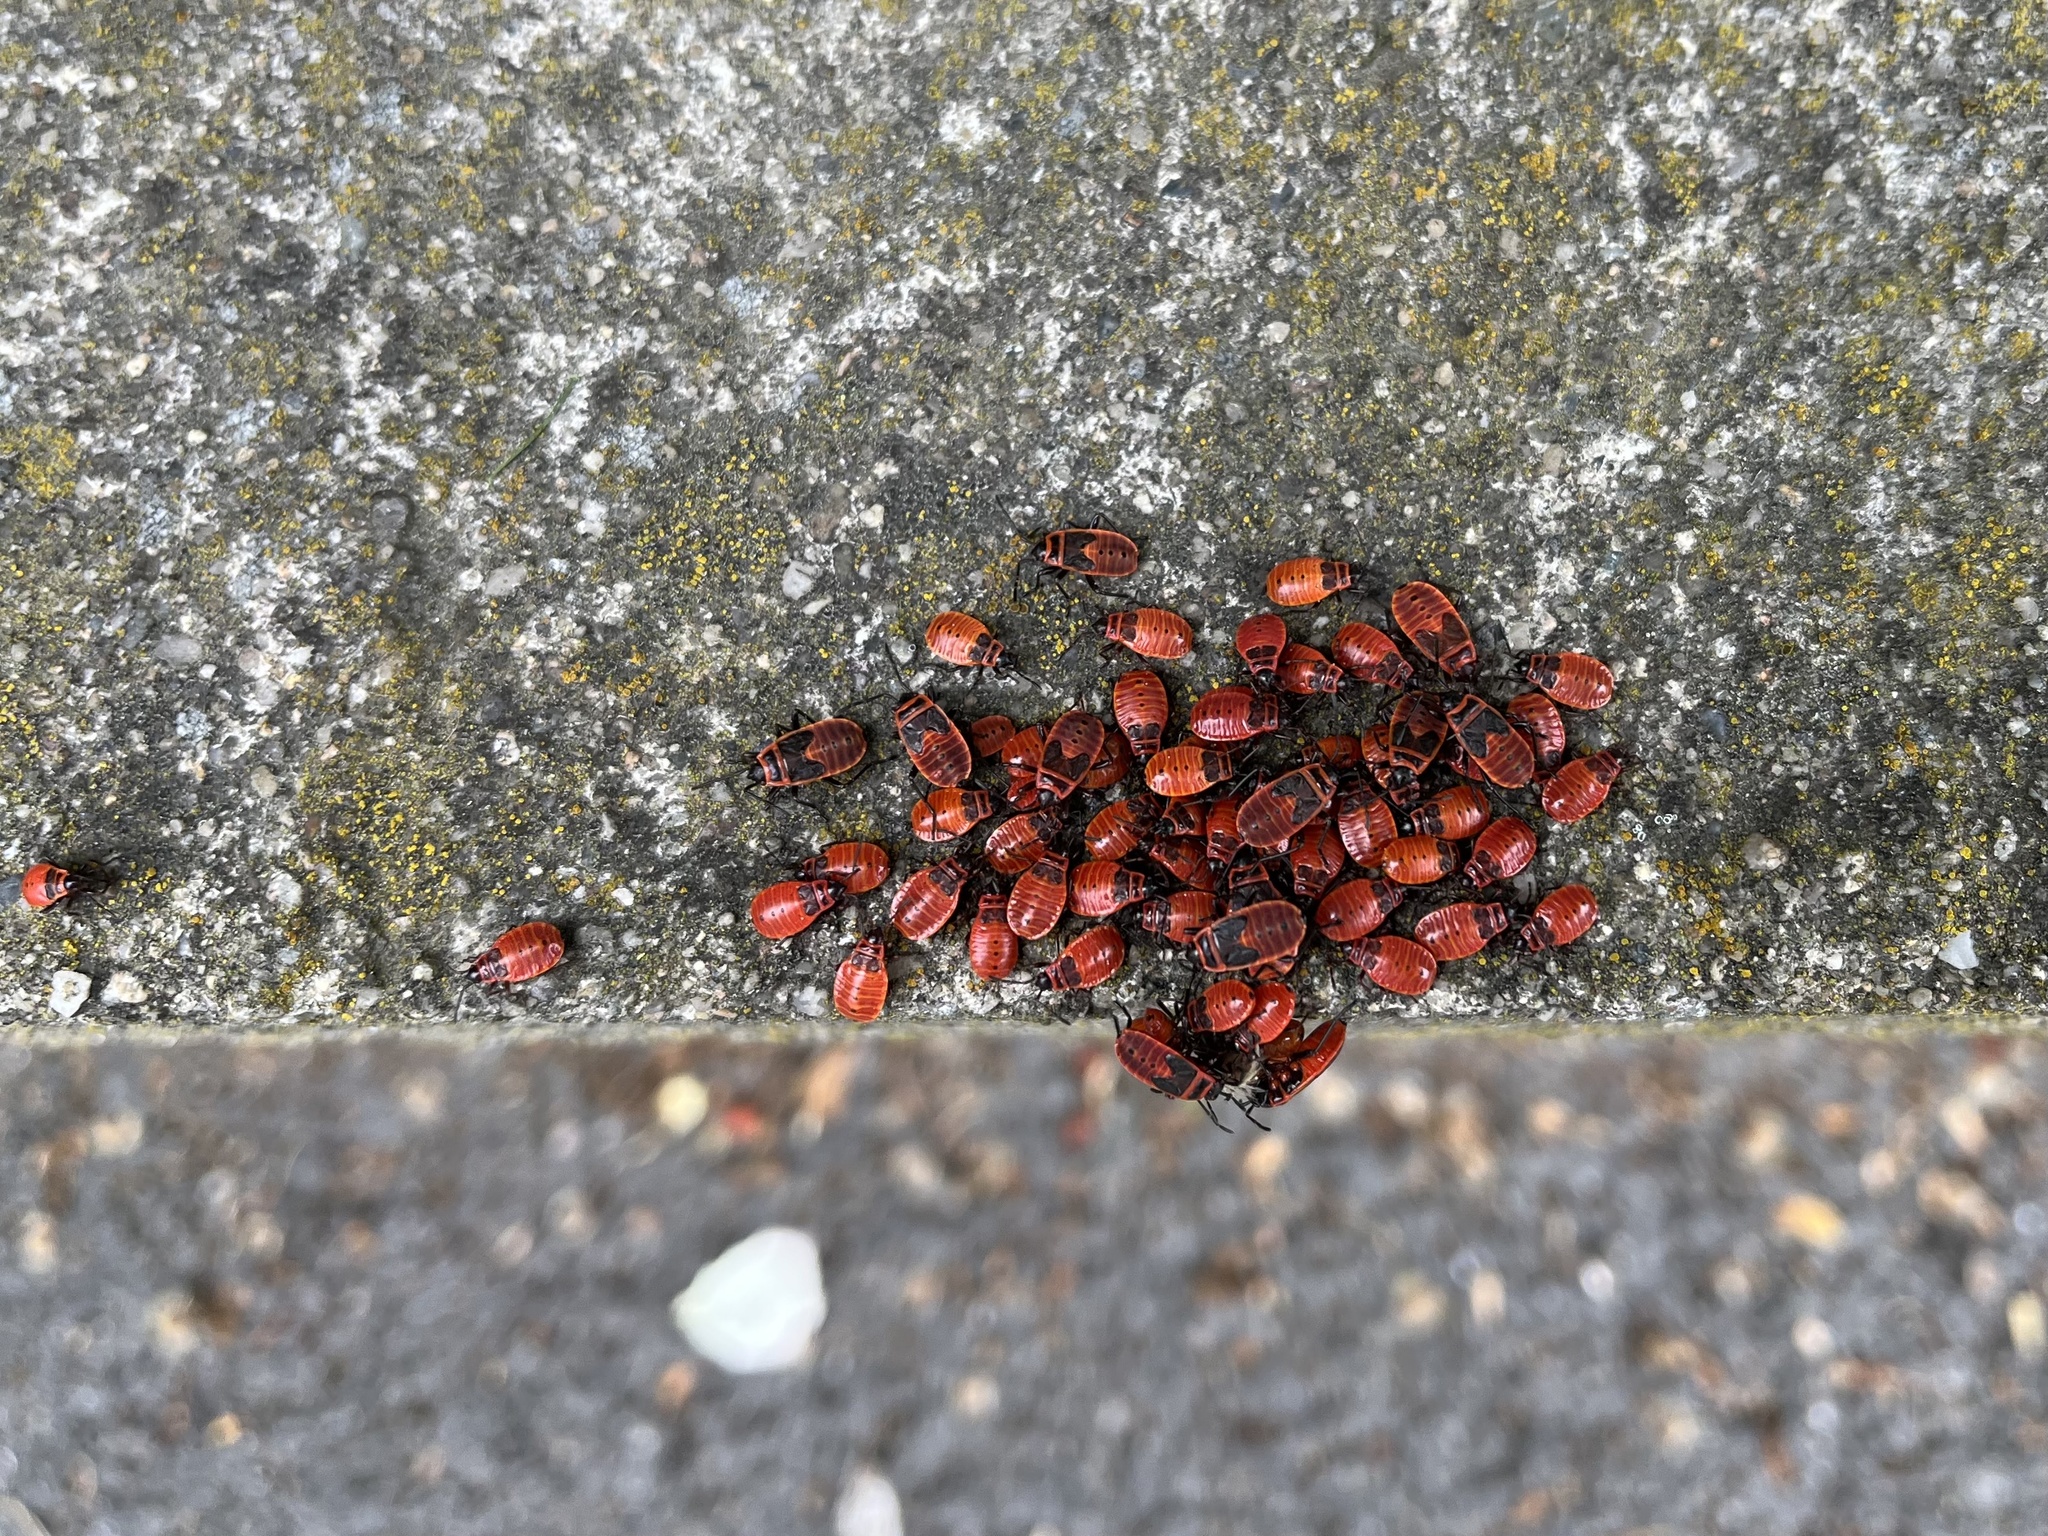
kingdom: Animalia
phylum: Arthropoda
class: Insecta
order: Hemiptera
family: Pyrrhocoridae
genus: Pyrrhocoris
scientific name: Pyrrhocoris apterus
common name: Firebug
